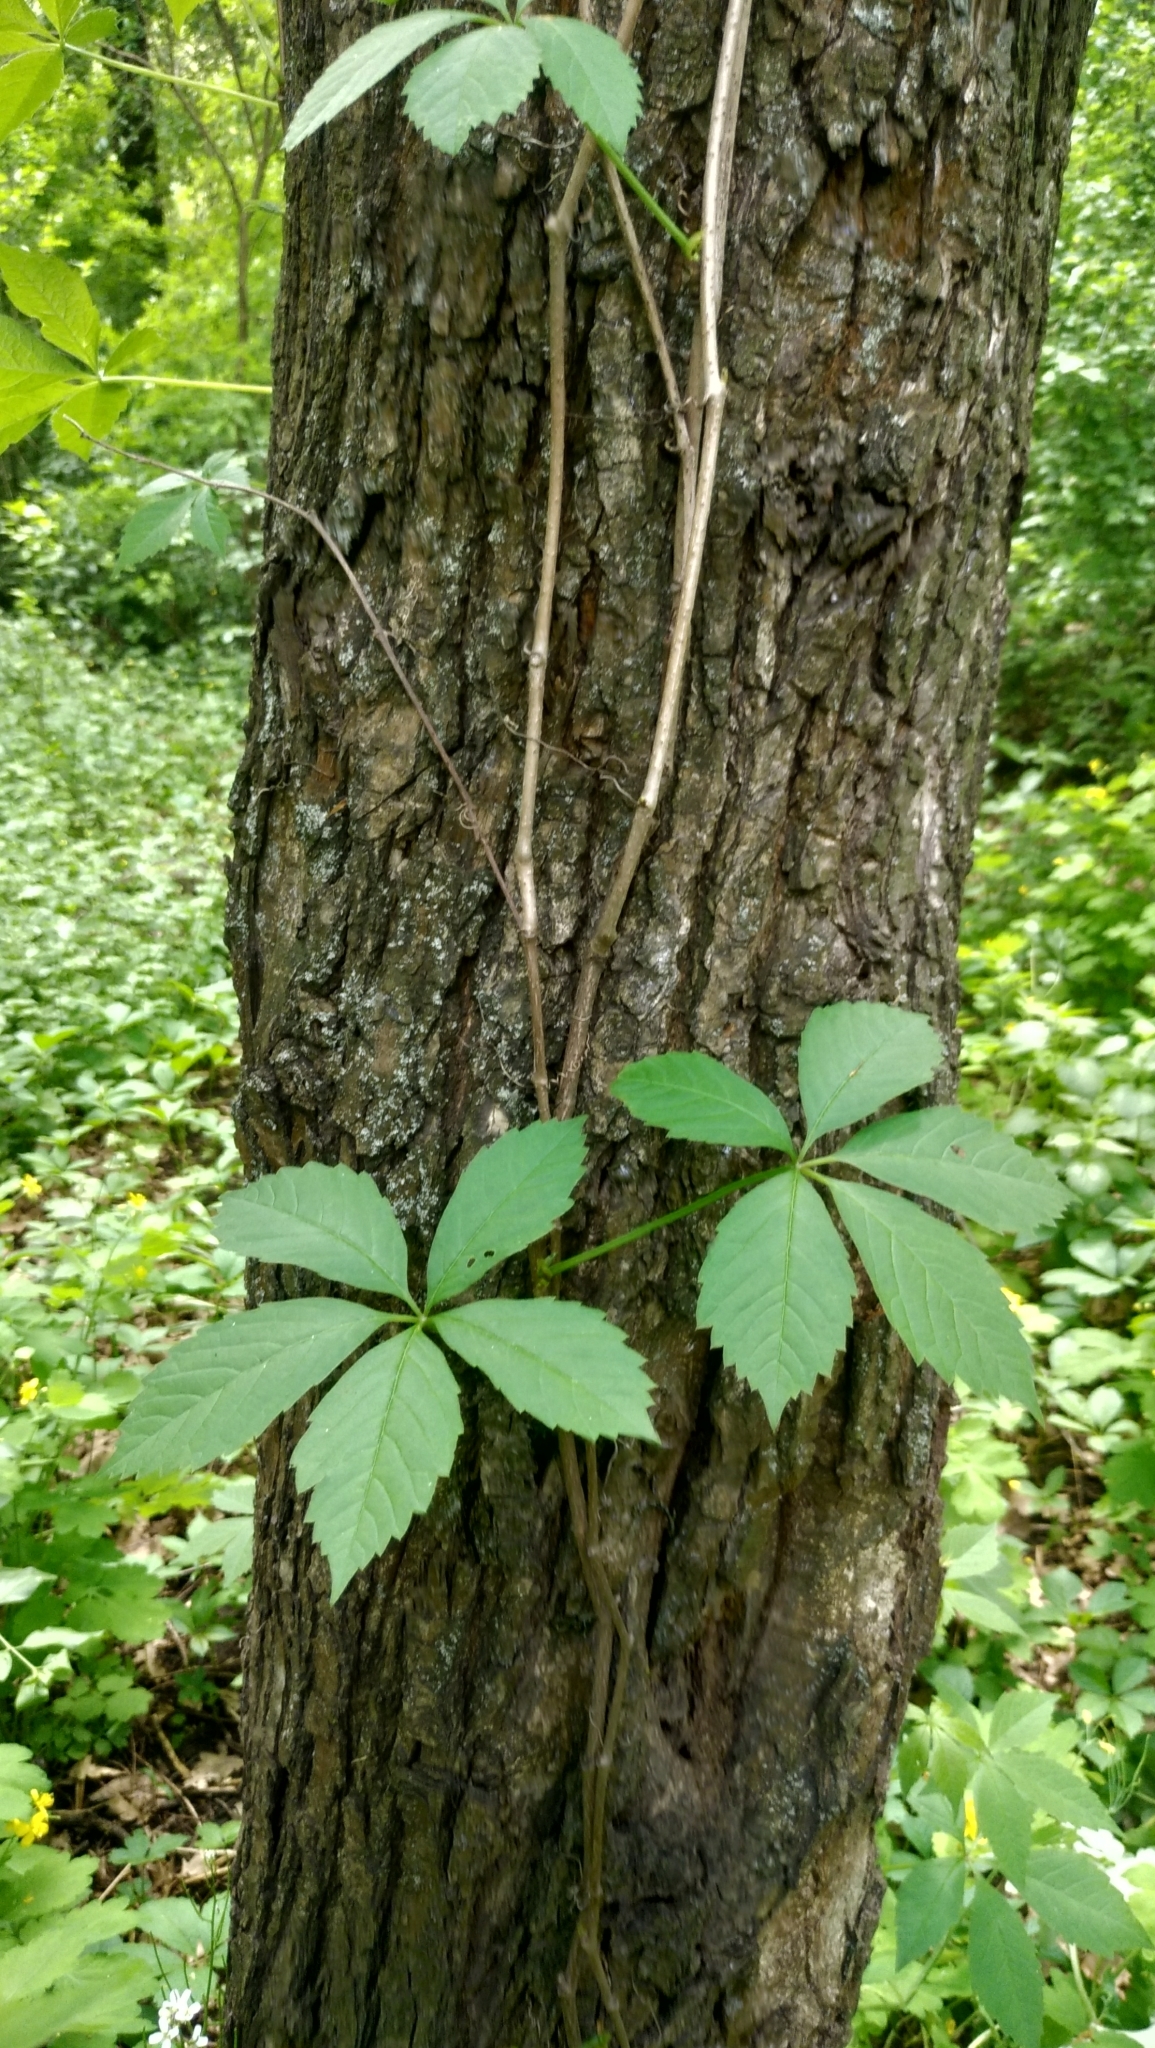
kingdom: Plantae
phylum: Tracheophyta
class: Magnoliopsida
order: Vitales
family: Vitaceae
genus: Parthenocissus
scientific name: Parthenocissus inserta
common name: False virginia-creeper
